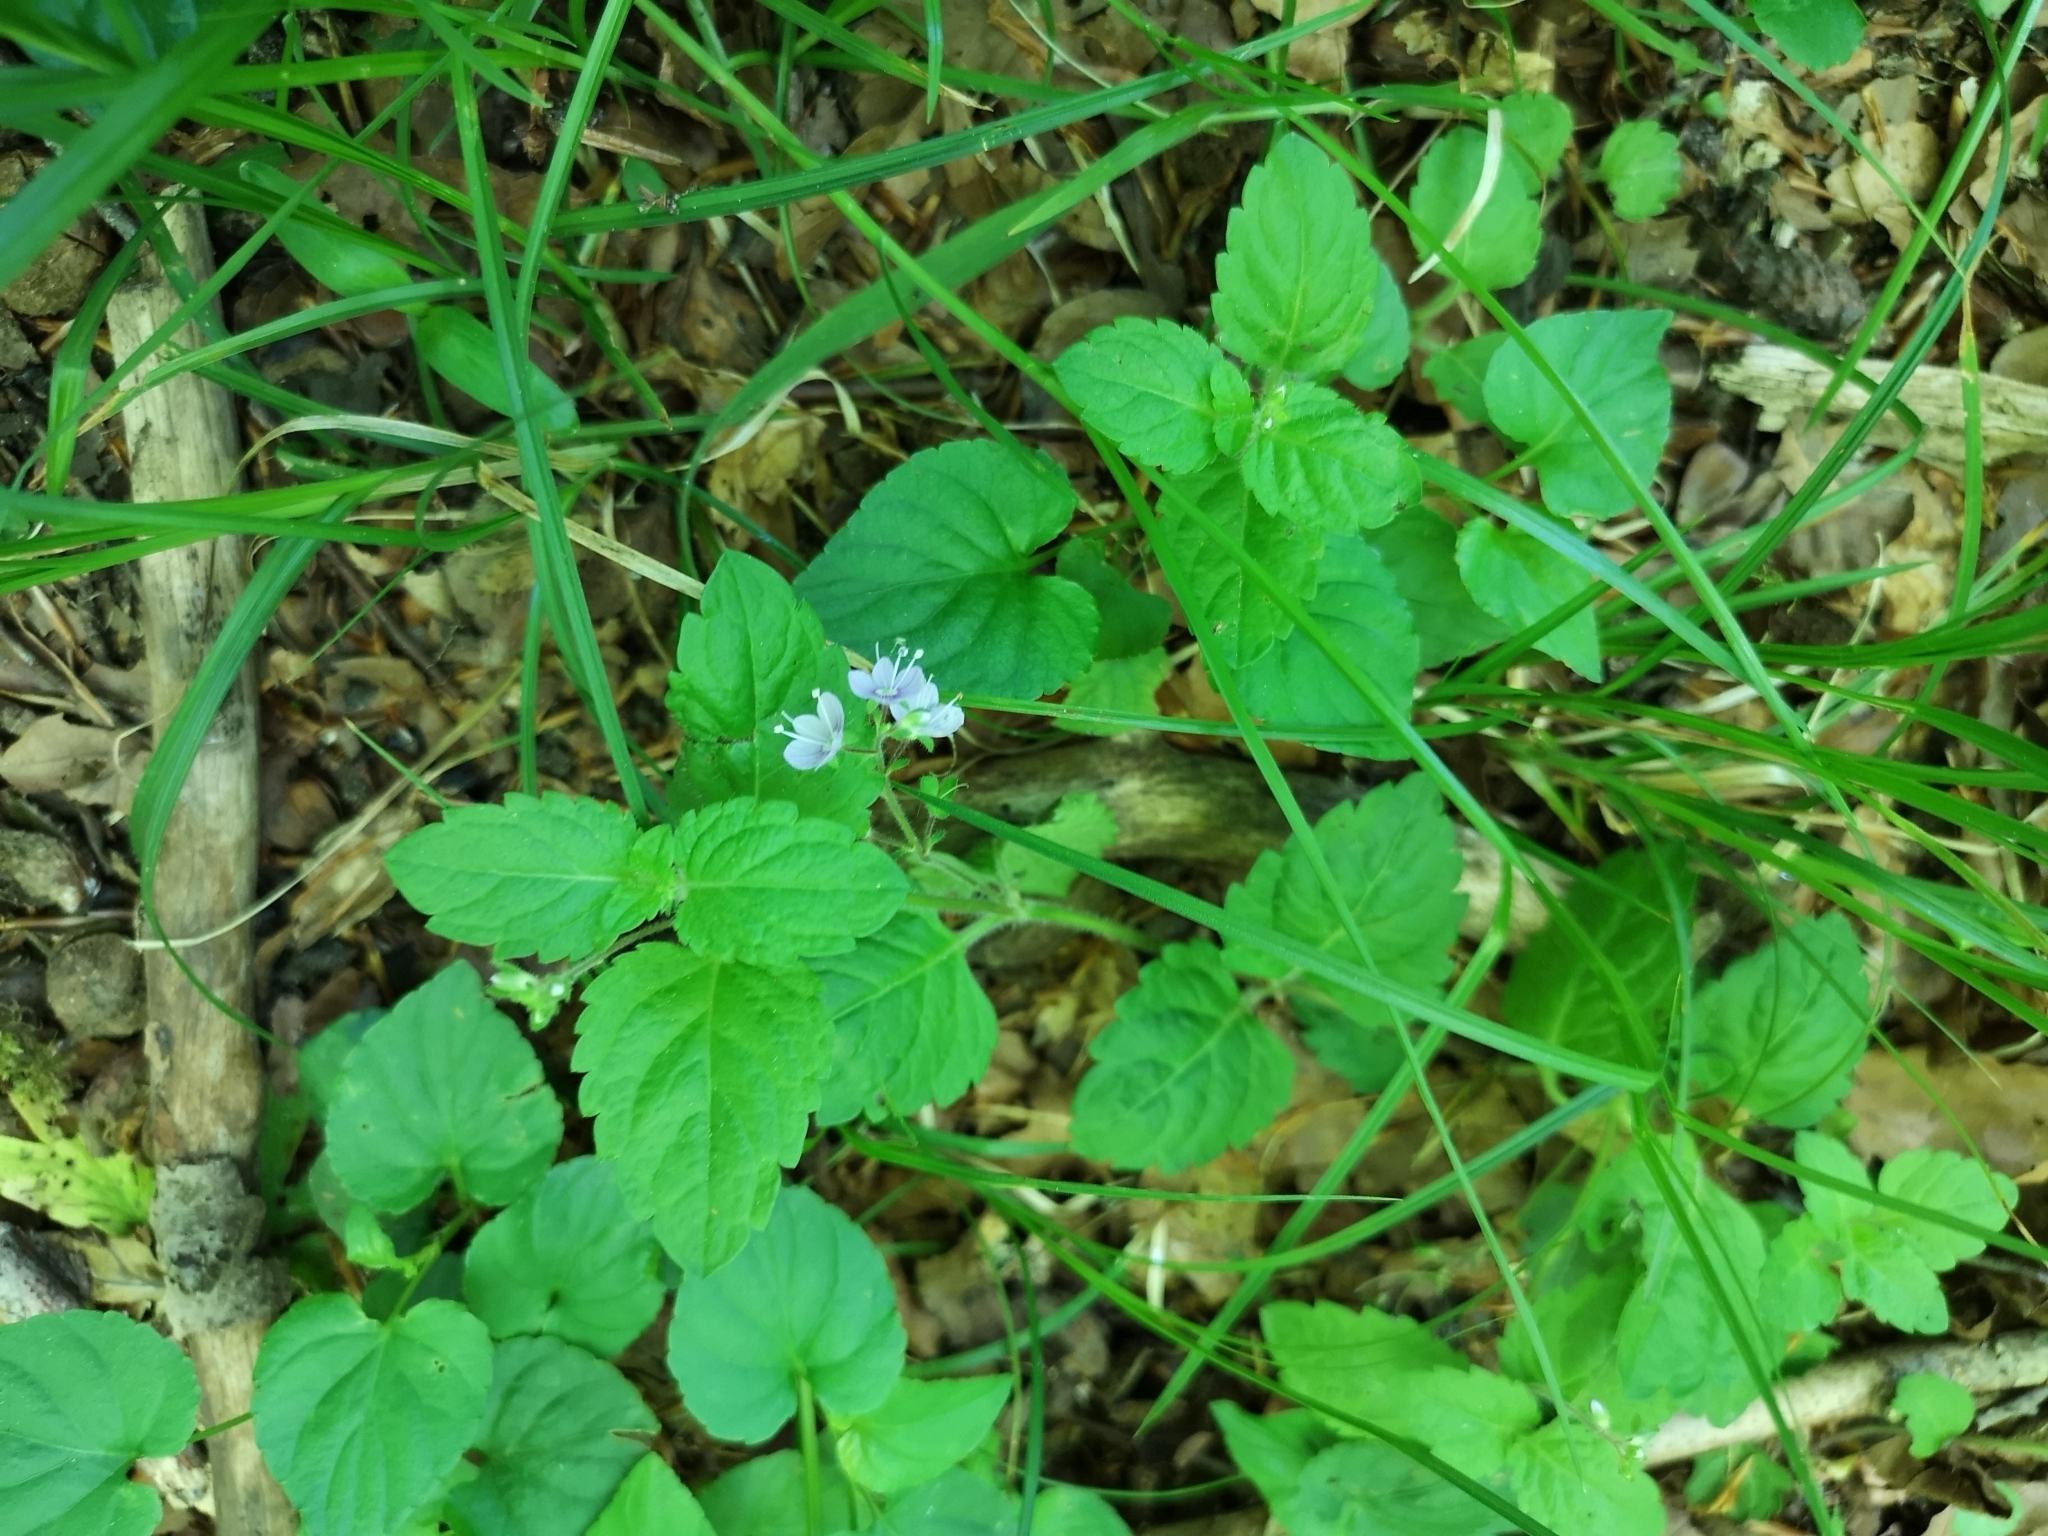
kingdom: Plantae
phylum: Tracheophyta
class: Magnoliopsida
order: Lamiales
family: Plantaginaceae
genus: Veronica
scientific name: Veronica montana
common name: Wood speedwell
